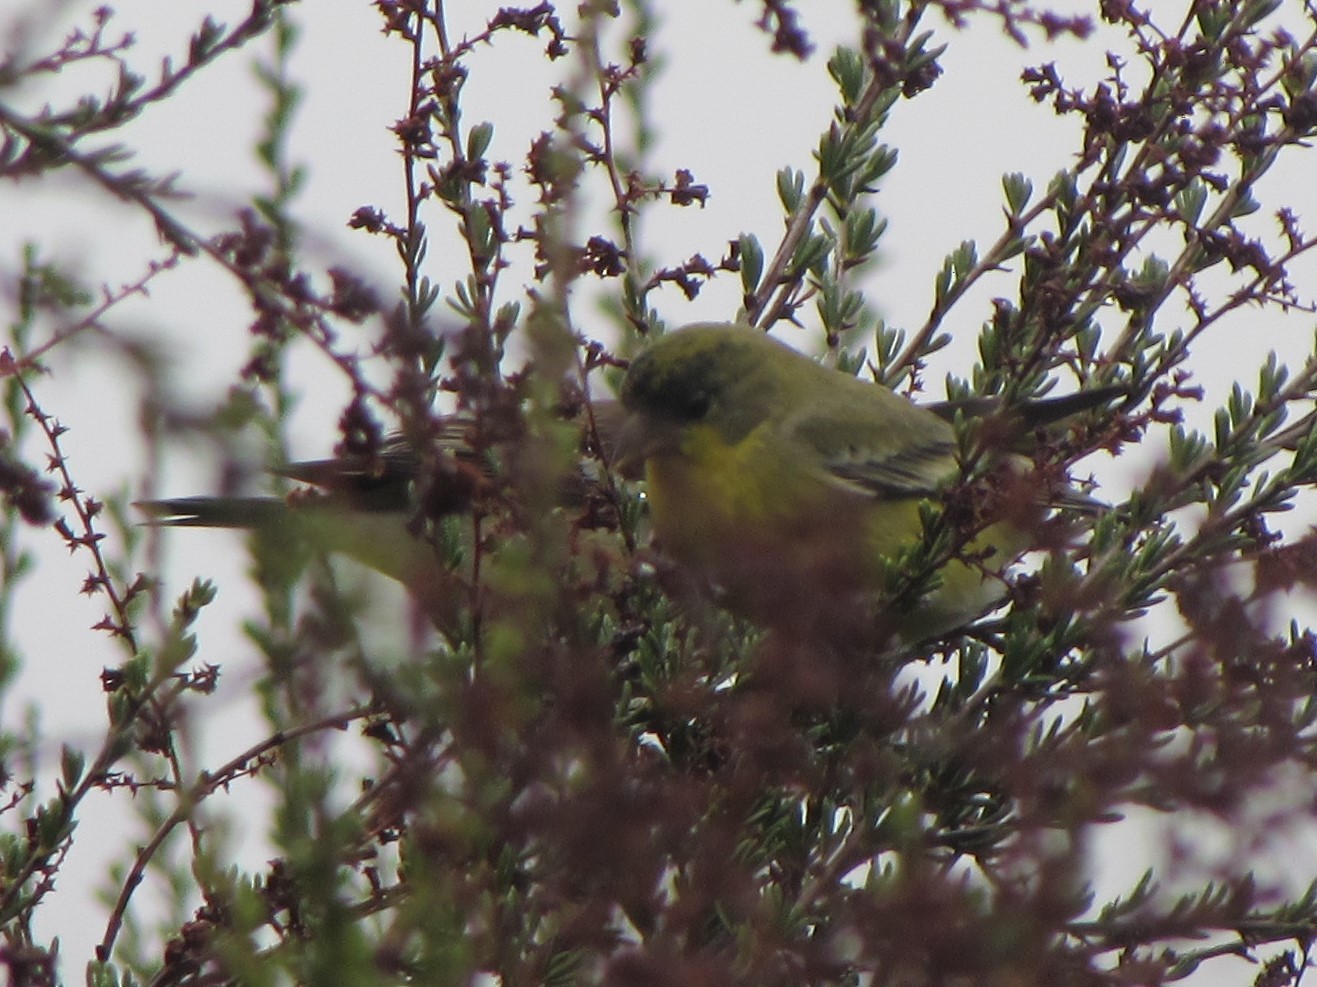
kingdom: Animalia
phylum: Chordata
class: Aves
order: Passeriformes
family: Fringillidae
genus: Spinus
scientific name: Spinus psaltria
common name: Lesser goldfinch
